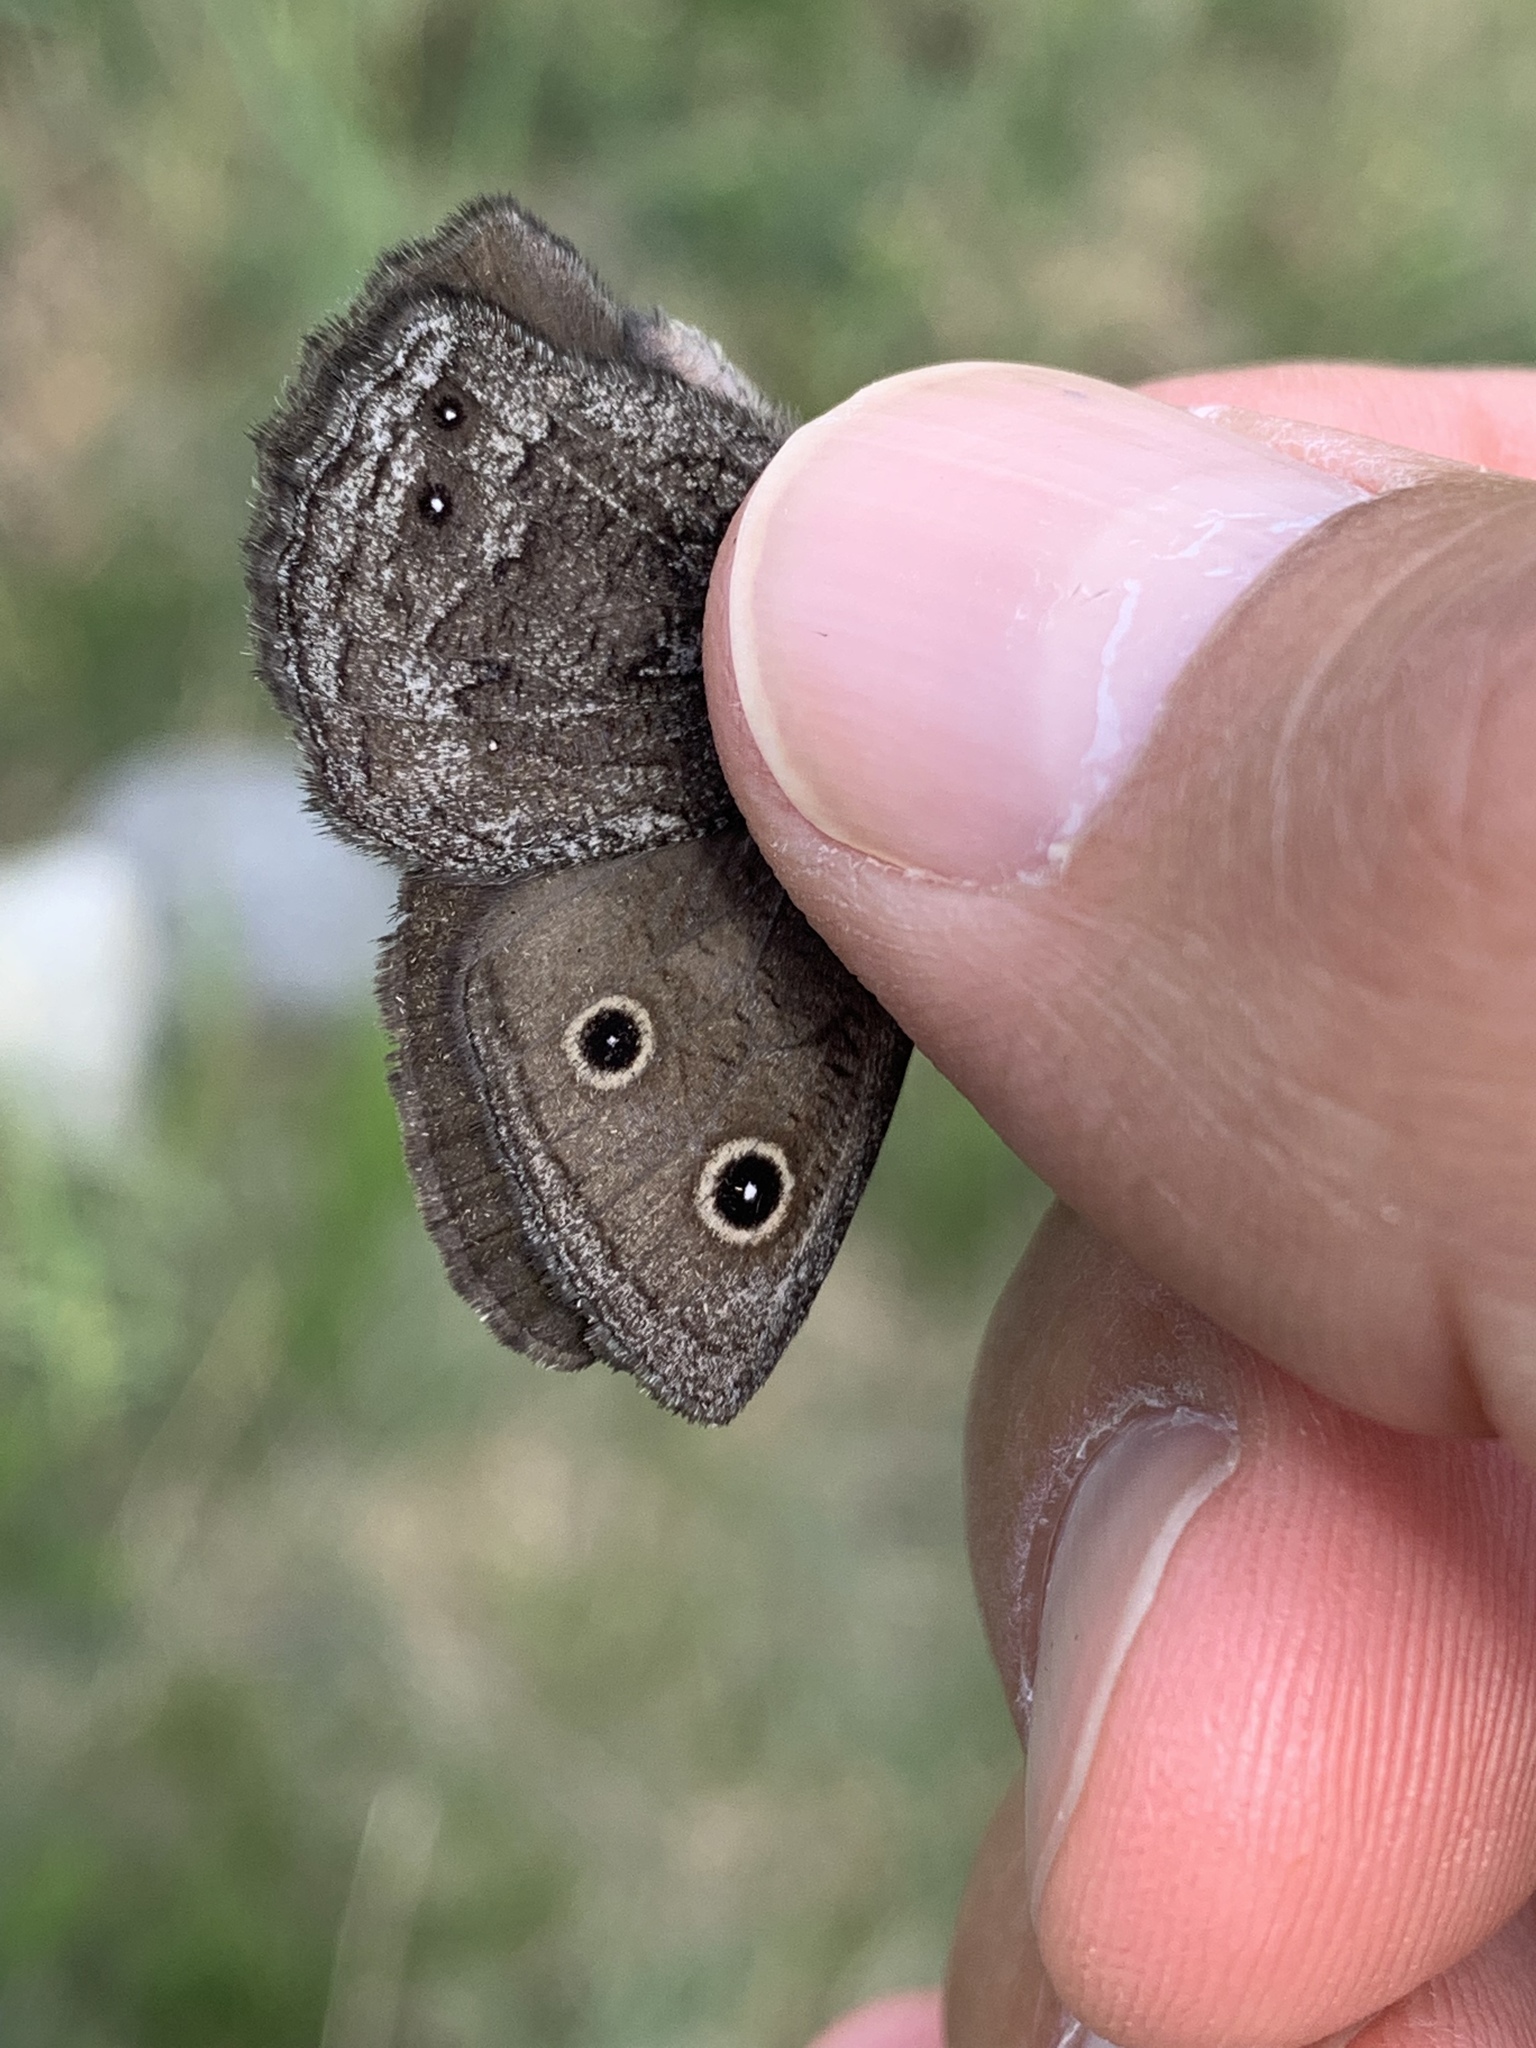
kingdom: Animalia
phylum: Arthropoda
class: Insecta
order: Lepidoptera
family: Nymphalidae
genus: Cercyonis
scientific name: Cercyonis oetus
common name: Small wood-nymph
